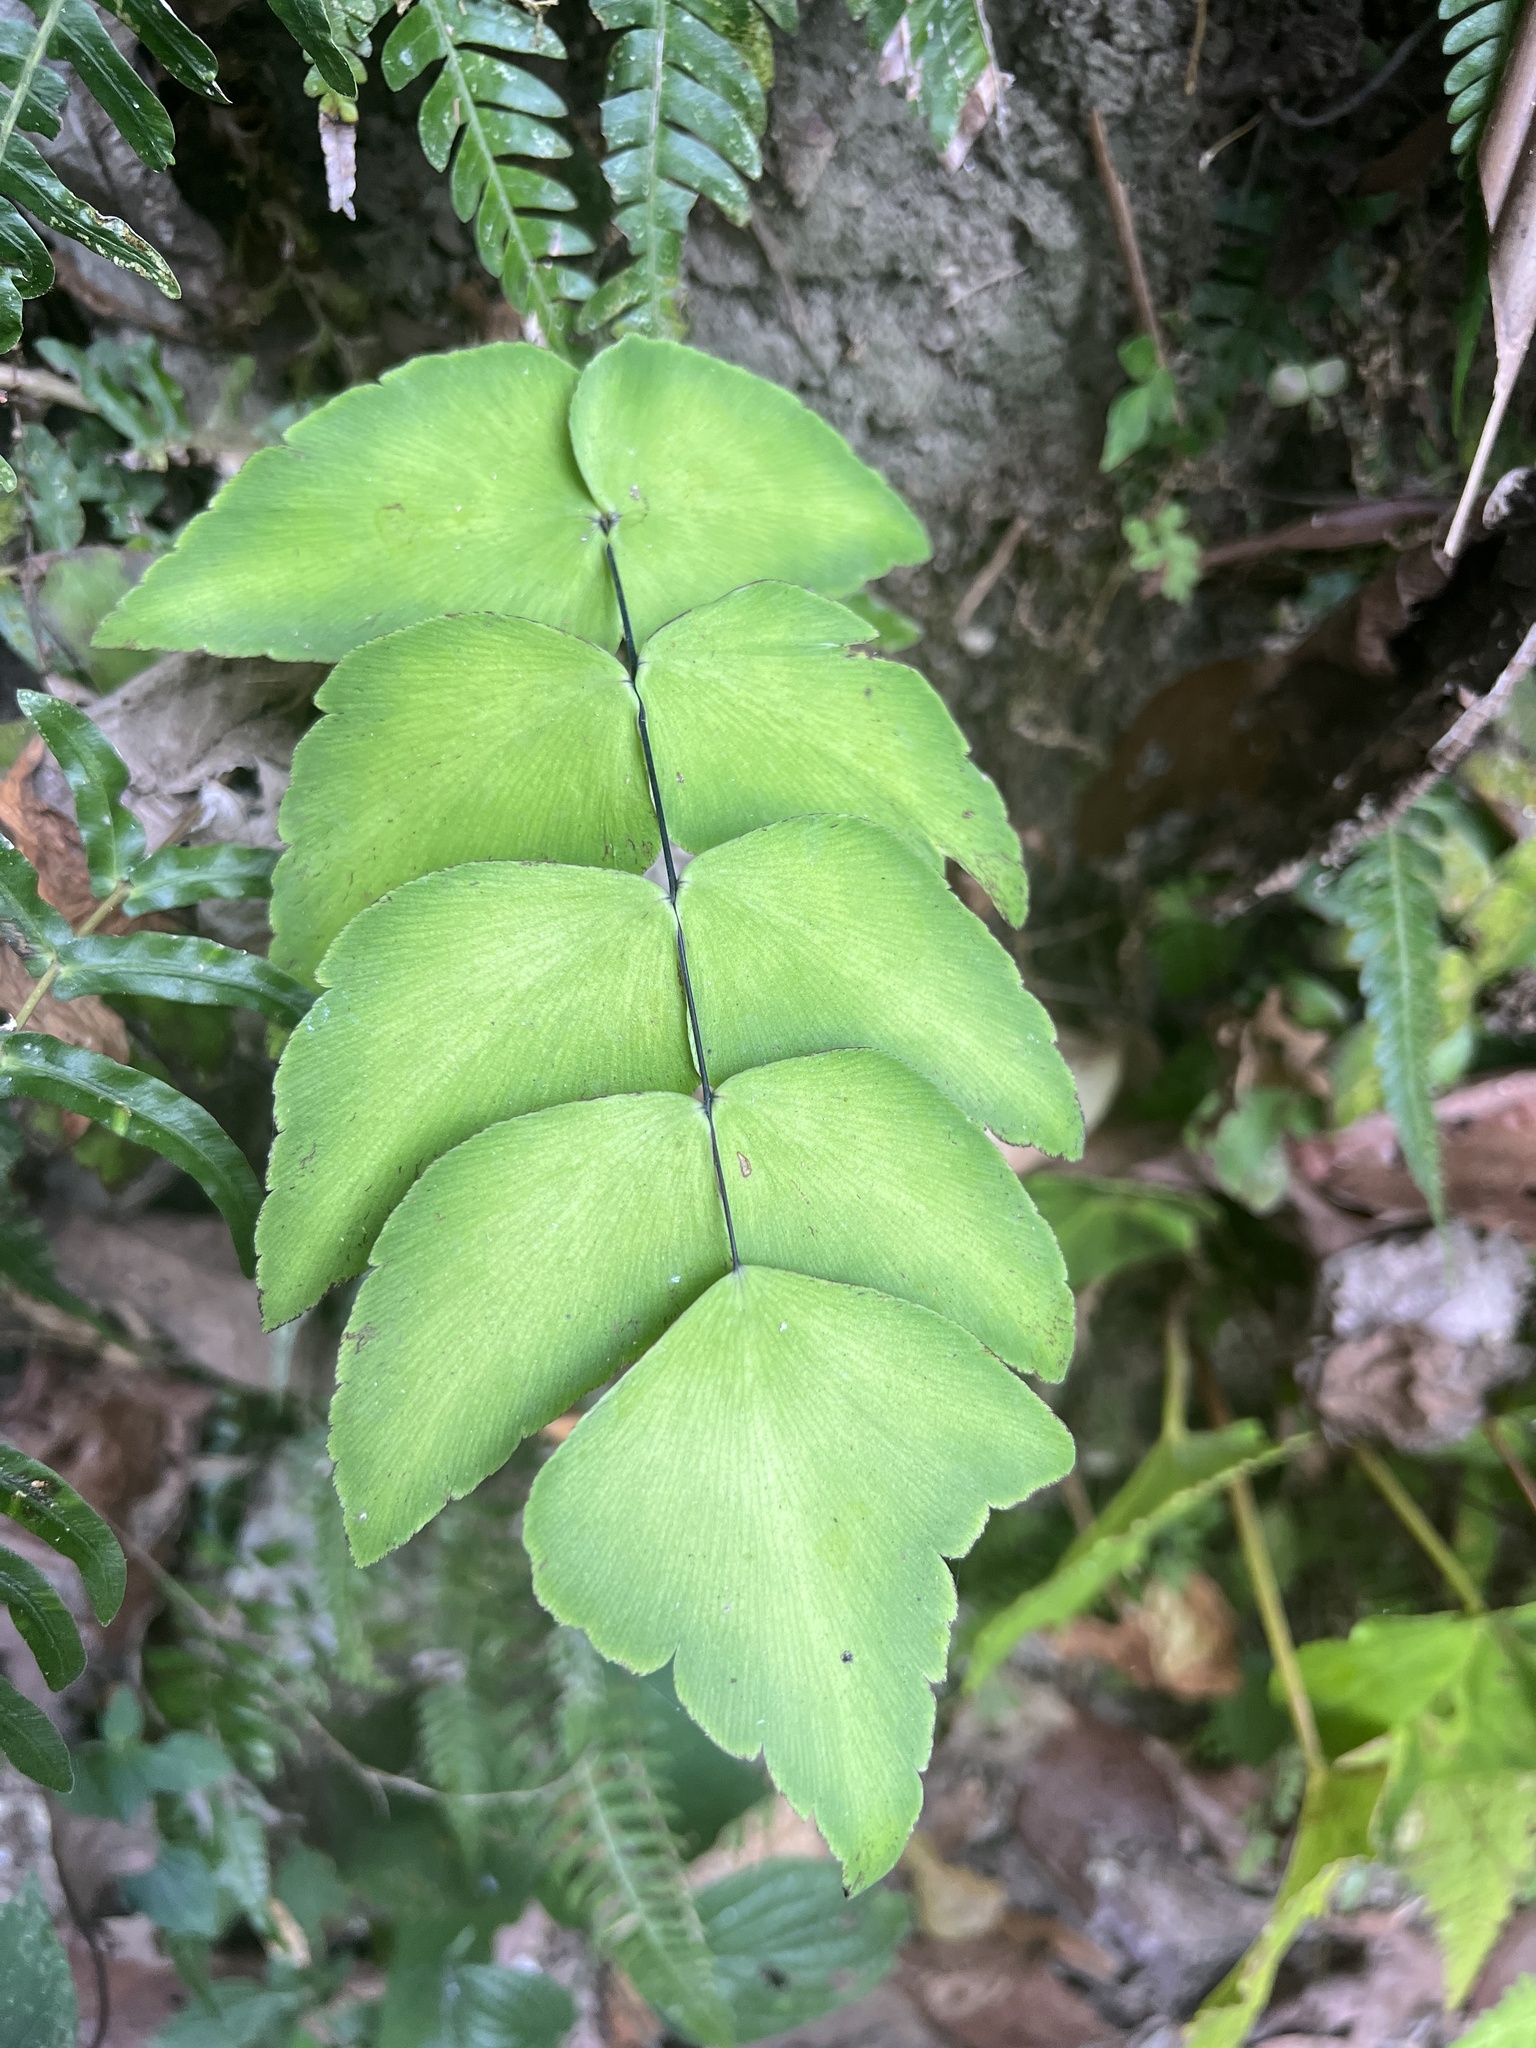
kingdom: Plantae
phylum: Tracheophyta
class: Polypodiopsida
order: Polypodiales
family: Pteridaceae
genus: Adiantum
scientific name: Adiantum macrophyllum
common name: Largeleaf maidenhair
